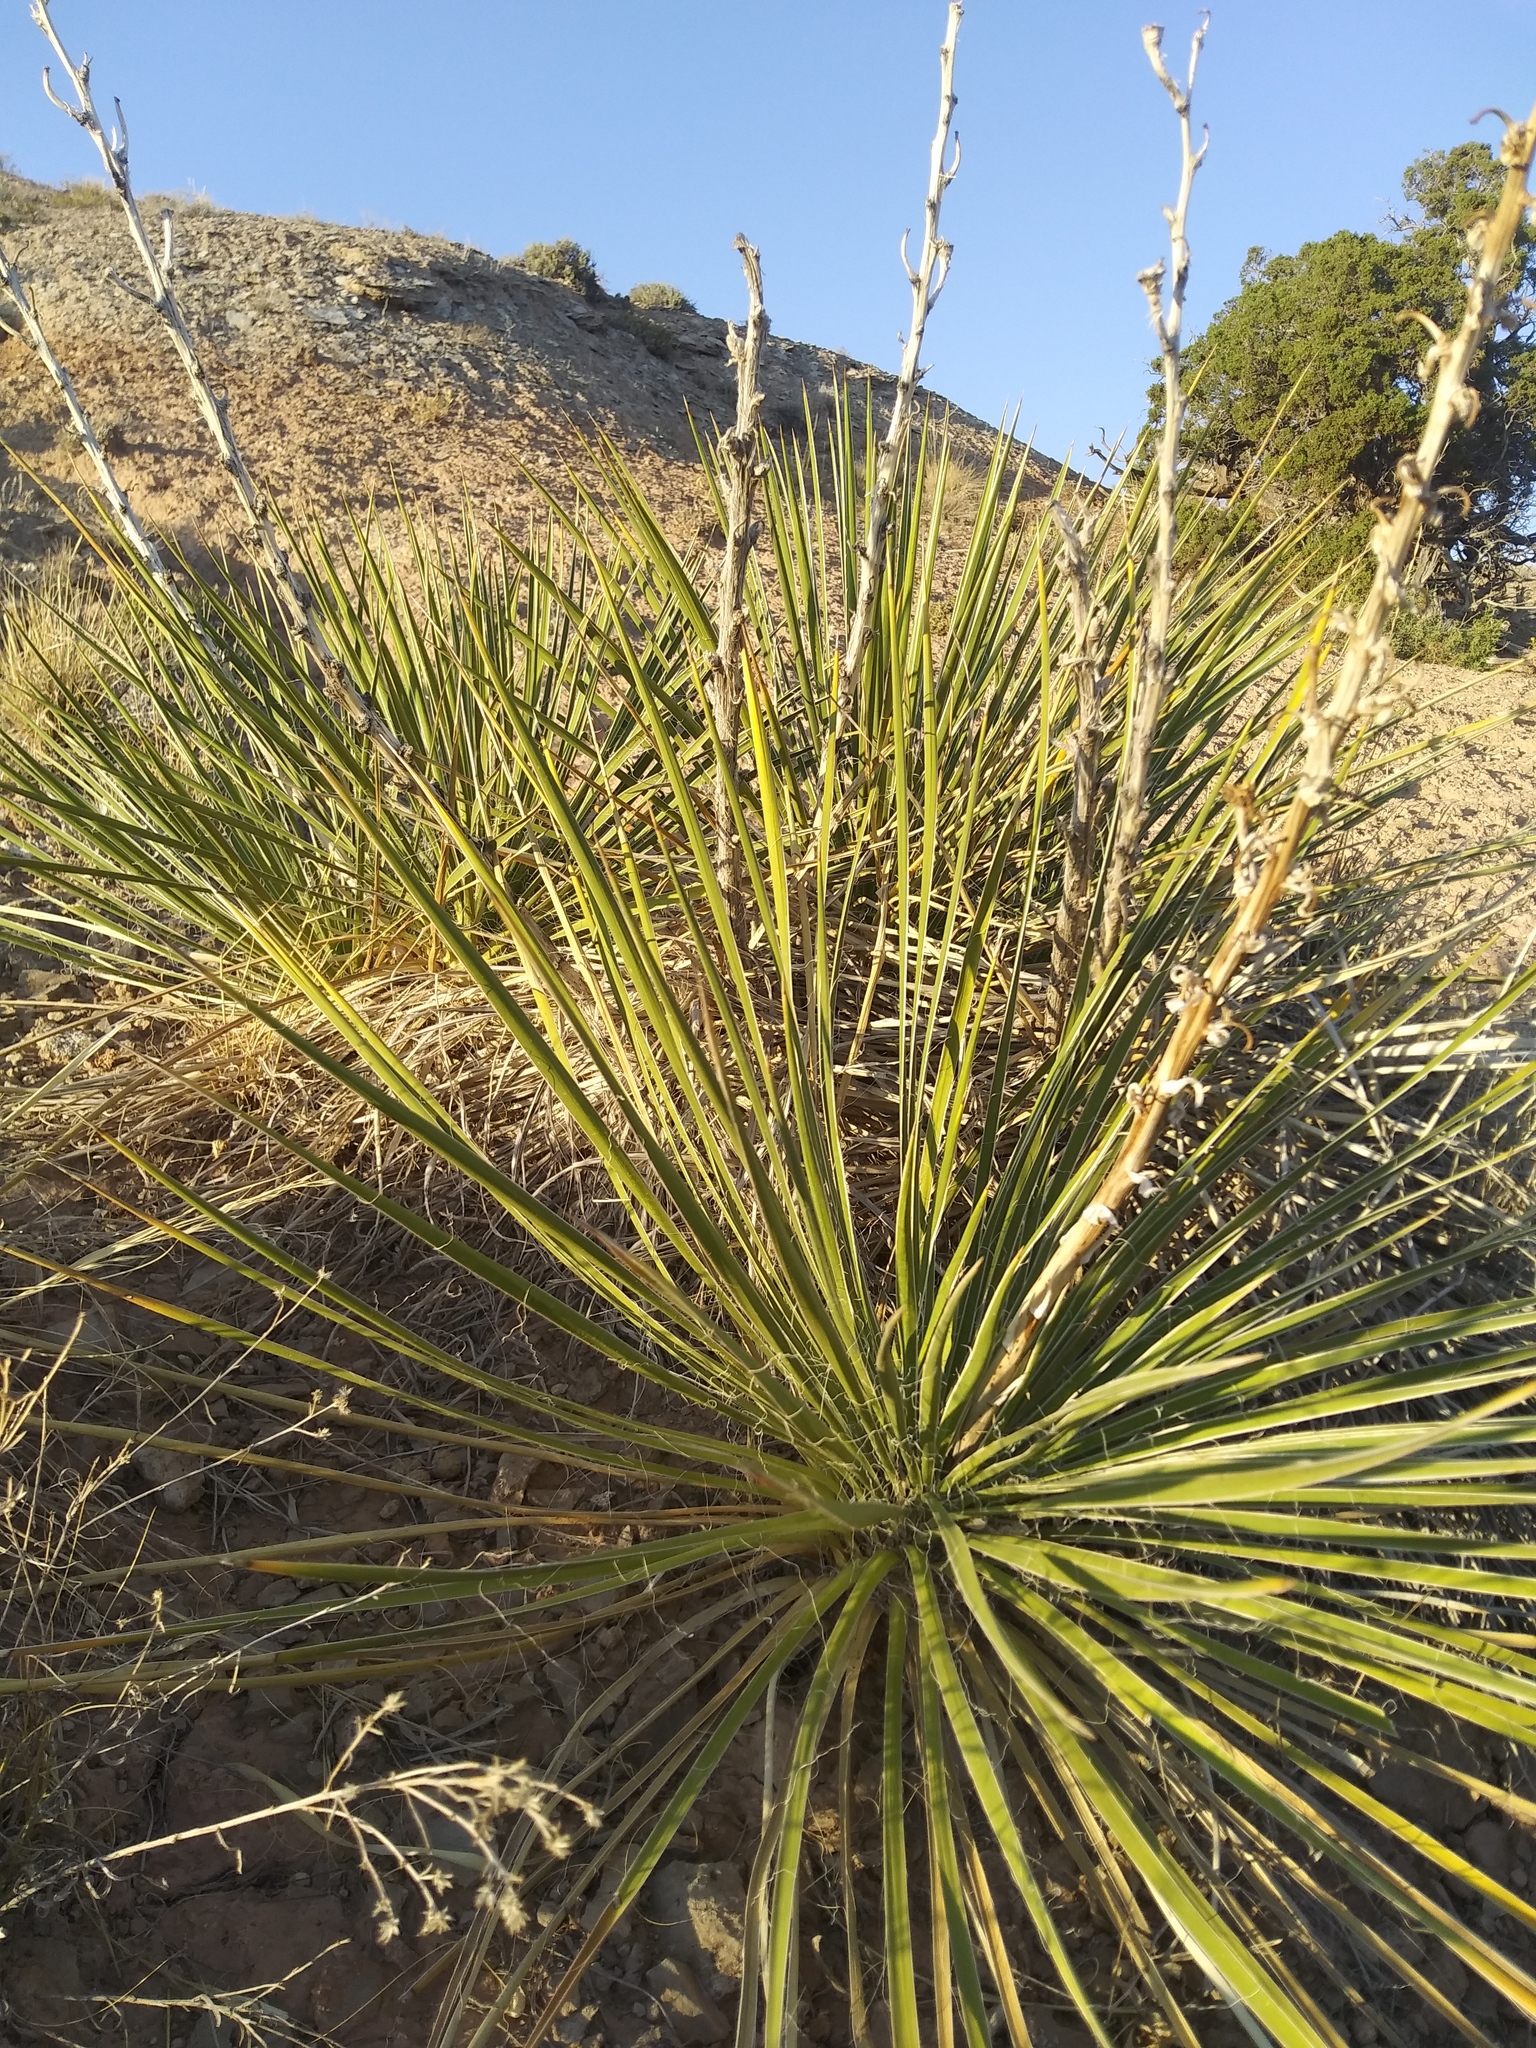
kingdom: Plantae
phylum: Tracheophyta
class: Liliopsida
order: Asparagales
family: Asparagaceae
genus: Yucca
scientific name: Yucca glauca
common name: Great plains yucca
